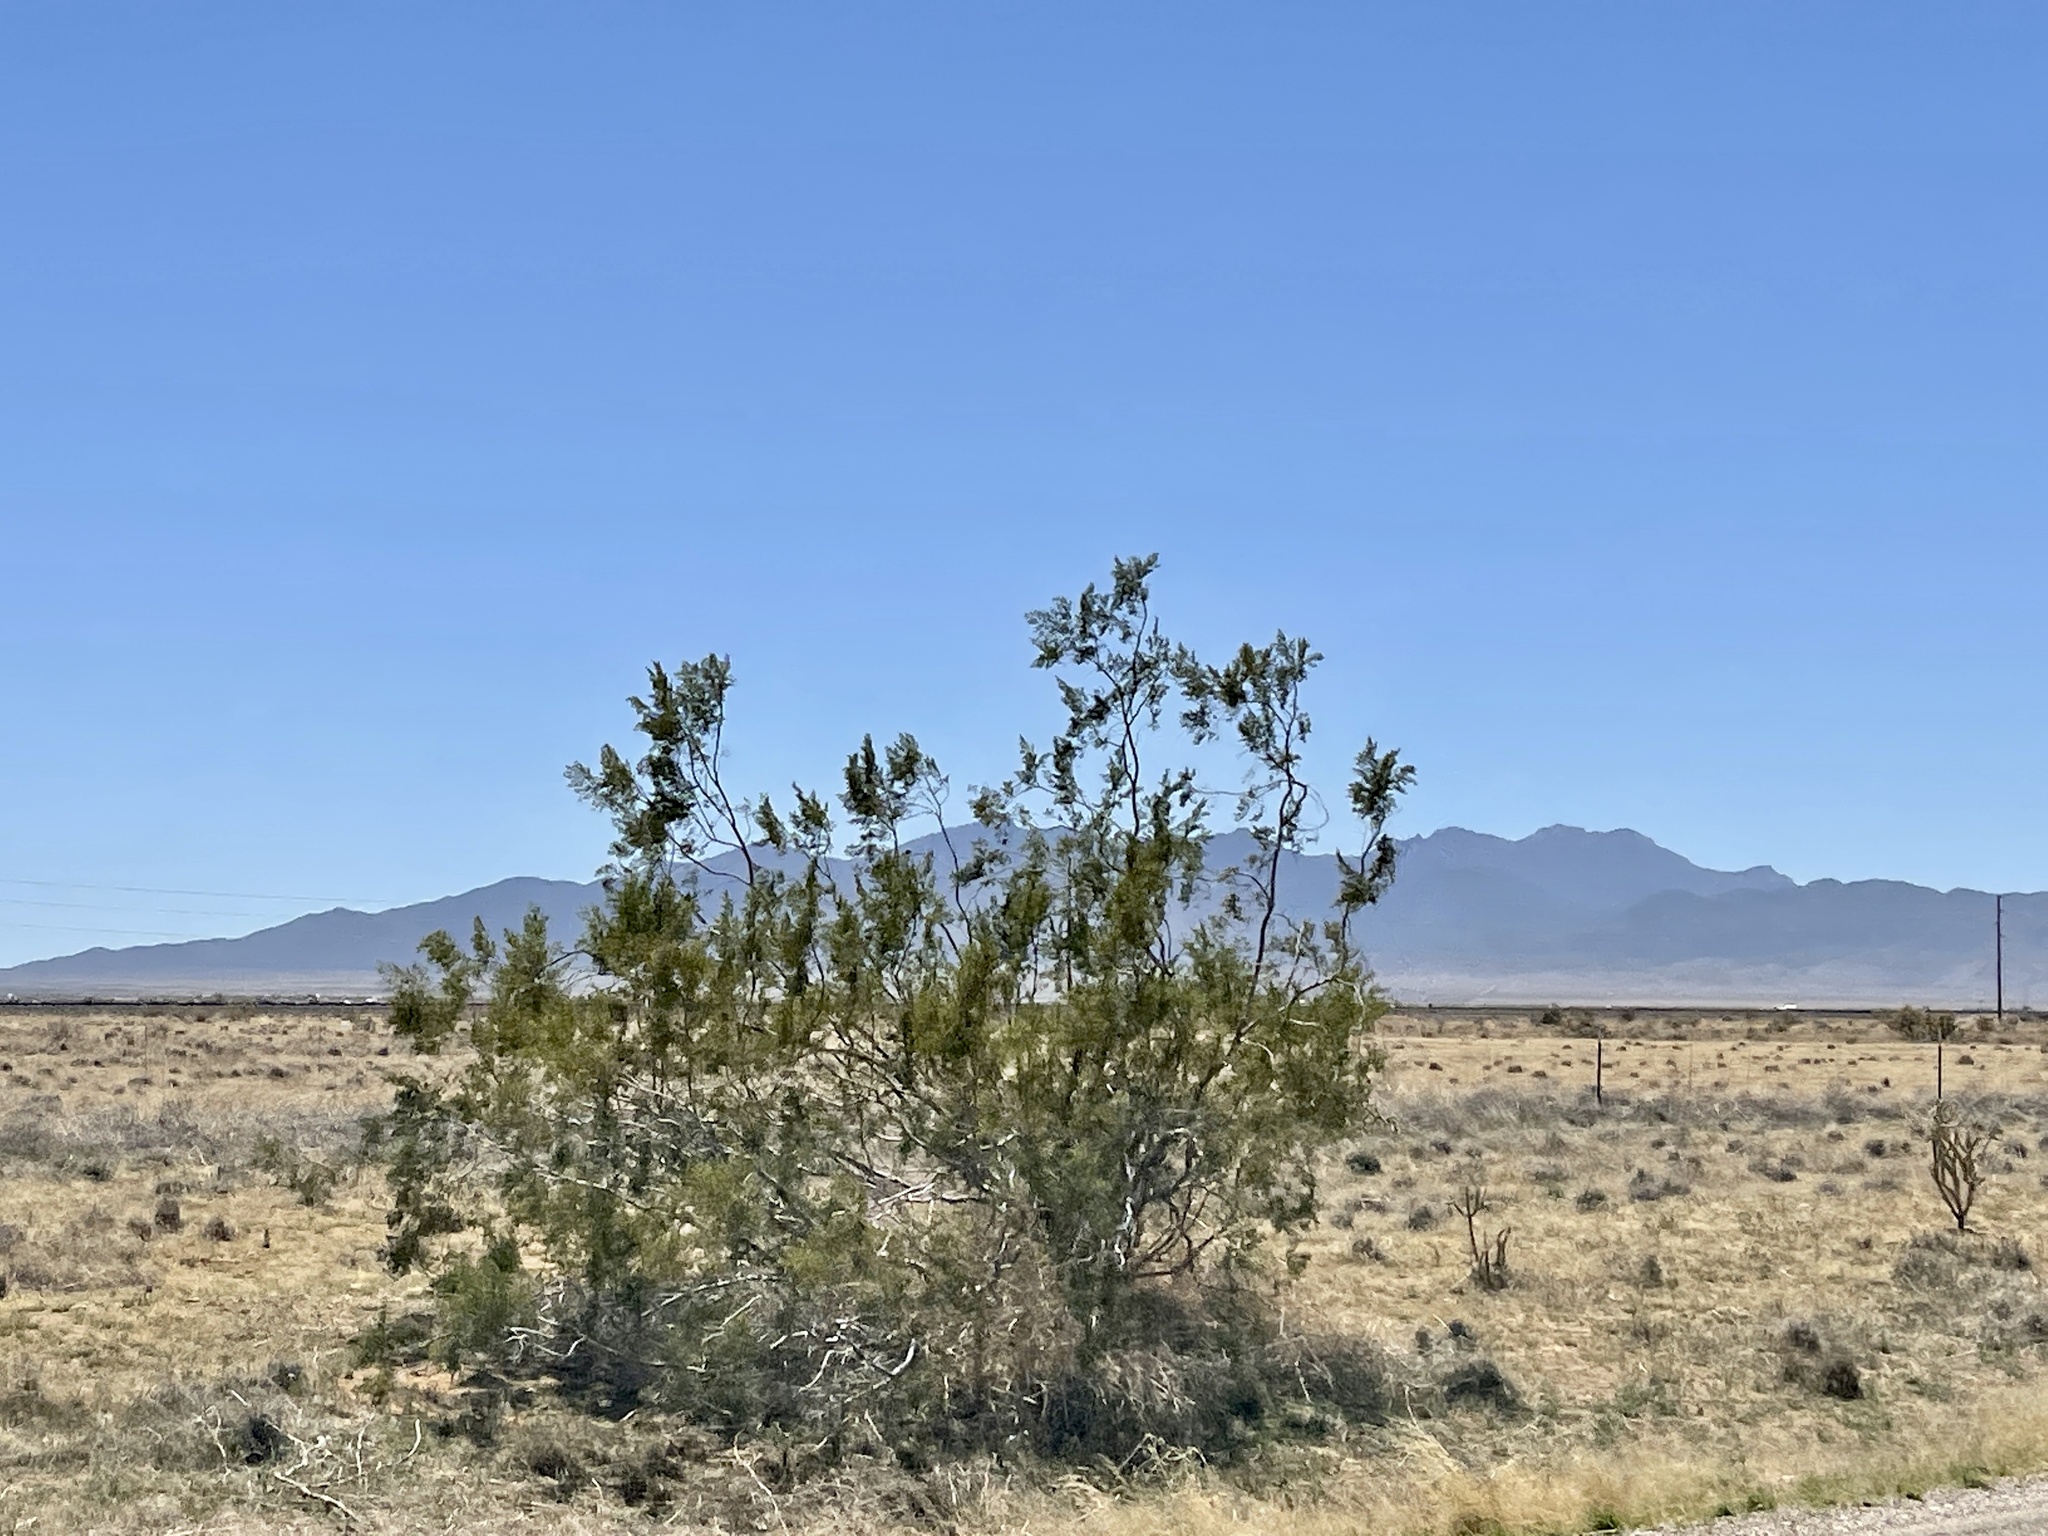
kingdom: Plantae
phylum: Tracheophyta
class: Magnoliopsida
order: Zygophyllales
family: Zygophyllaceae
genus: Larrea
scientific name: Larrea tridentata
